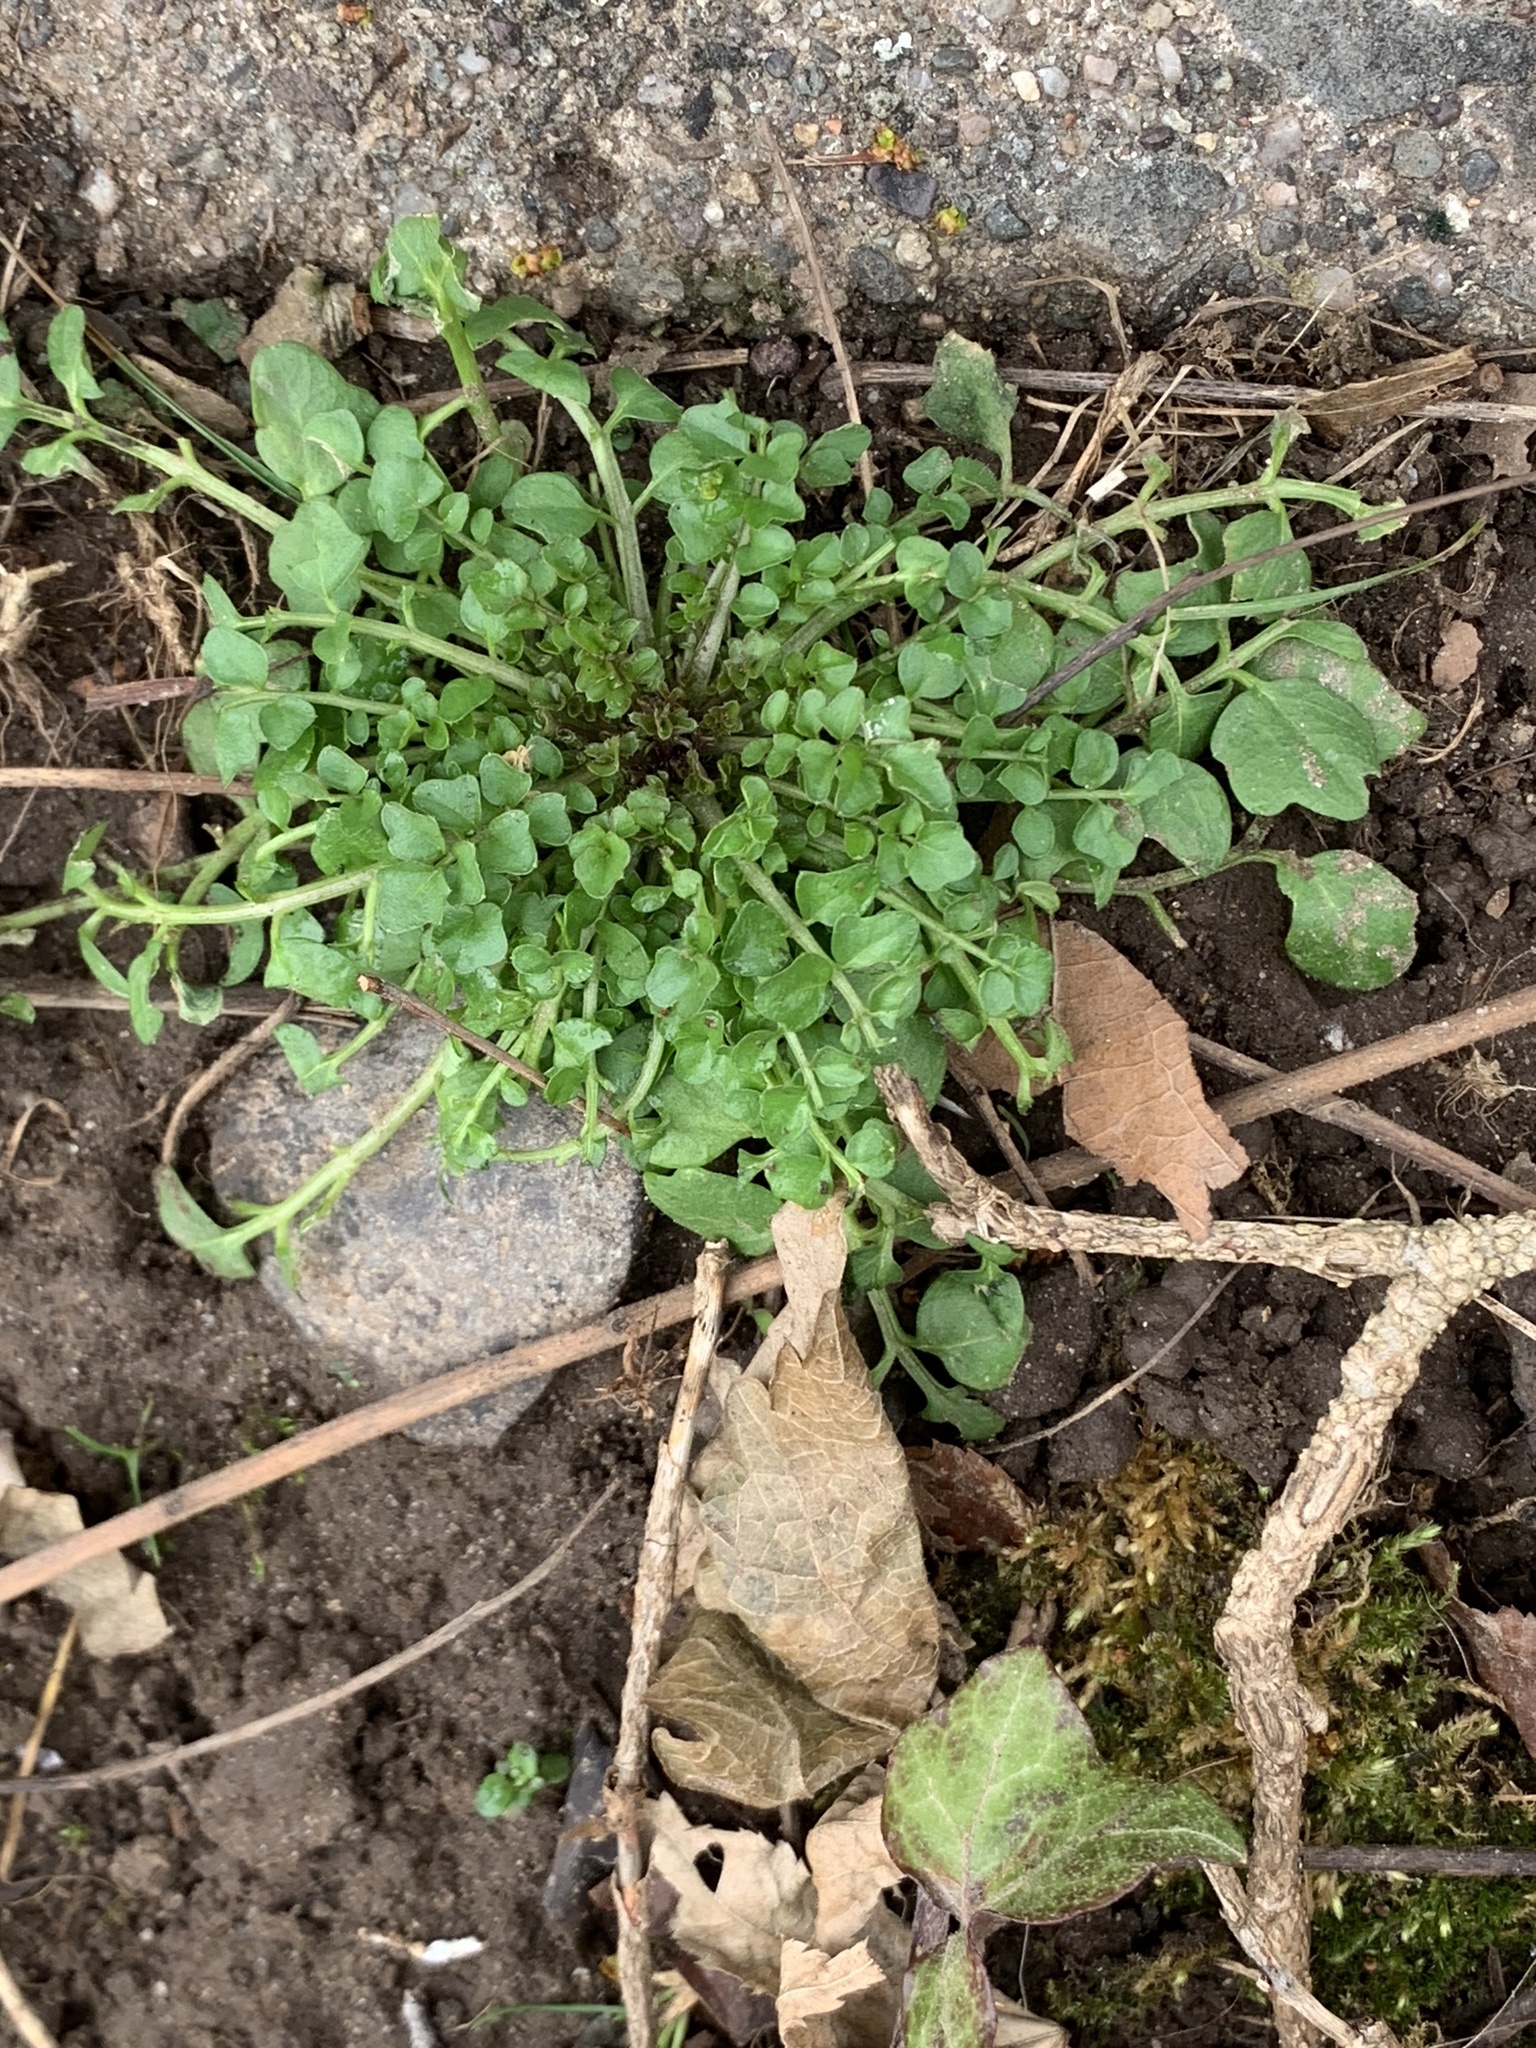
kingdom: Plantae
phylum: Tracheophyta
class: Magnoliopsida
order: Brassicales
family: Brassicaceae
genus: Cardamine
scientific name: Cardamine hirsuta
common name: Hairy bittercress
